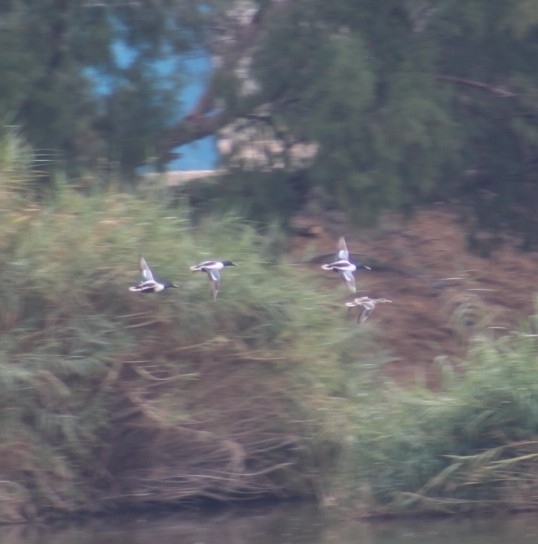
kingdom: Animalia
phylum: Chordata
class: Aves
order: Anseriformes
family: Anatidae
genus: Spatula
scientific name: Spatula clypeata
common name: Northern shoveler
